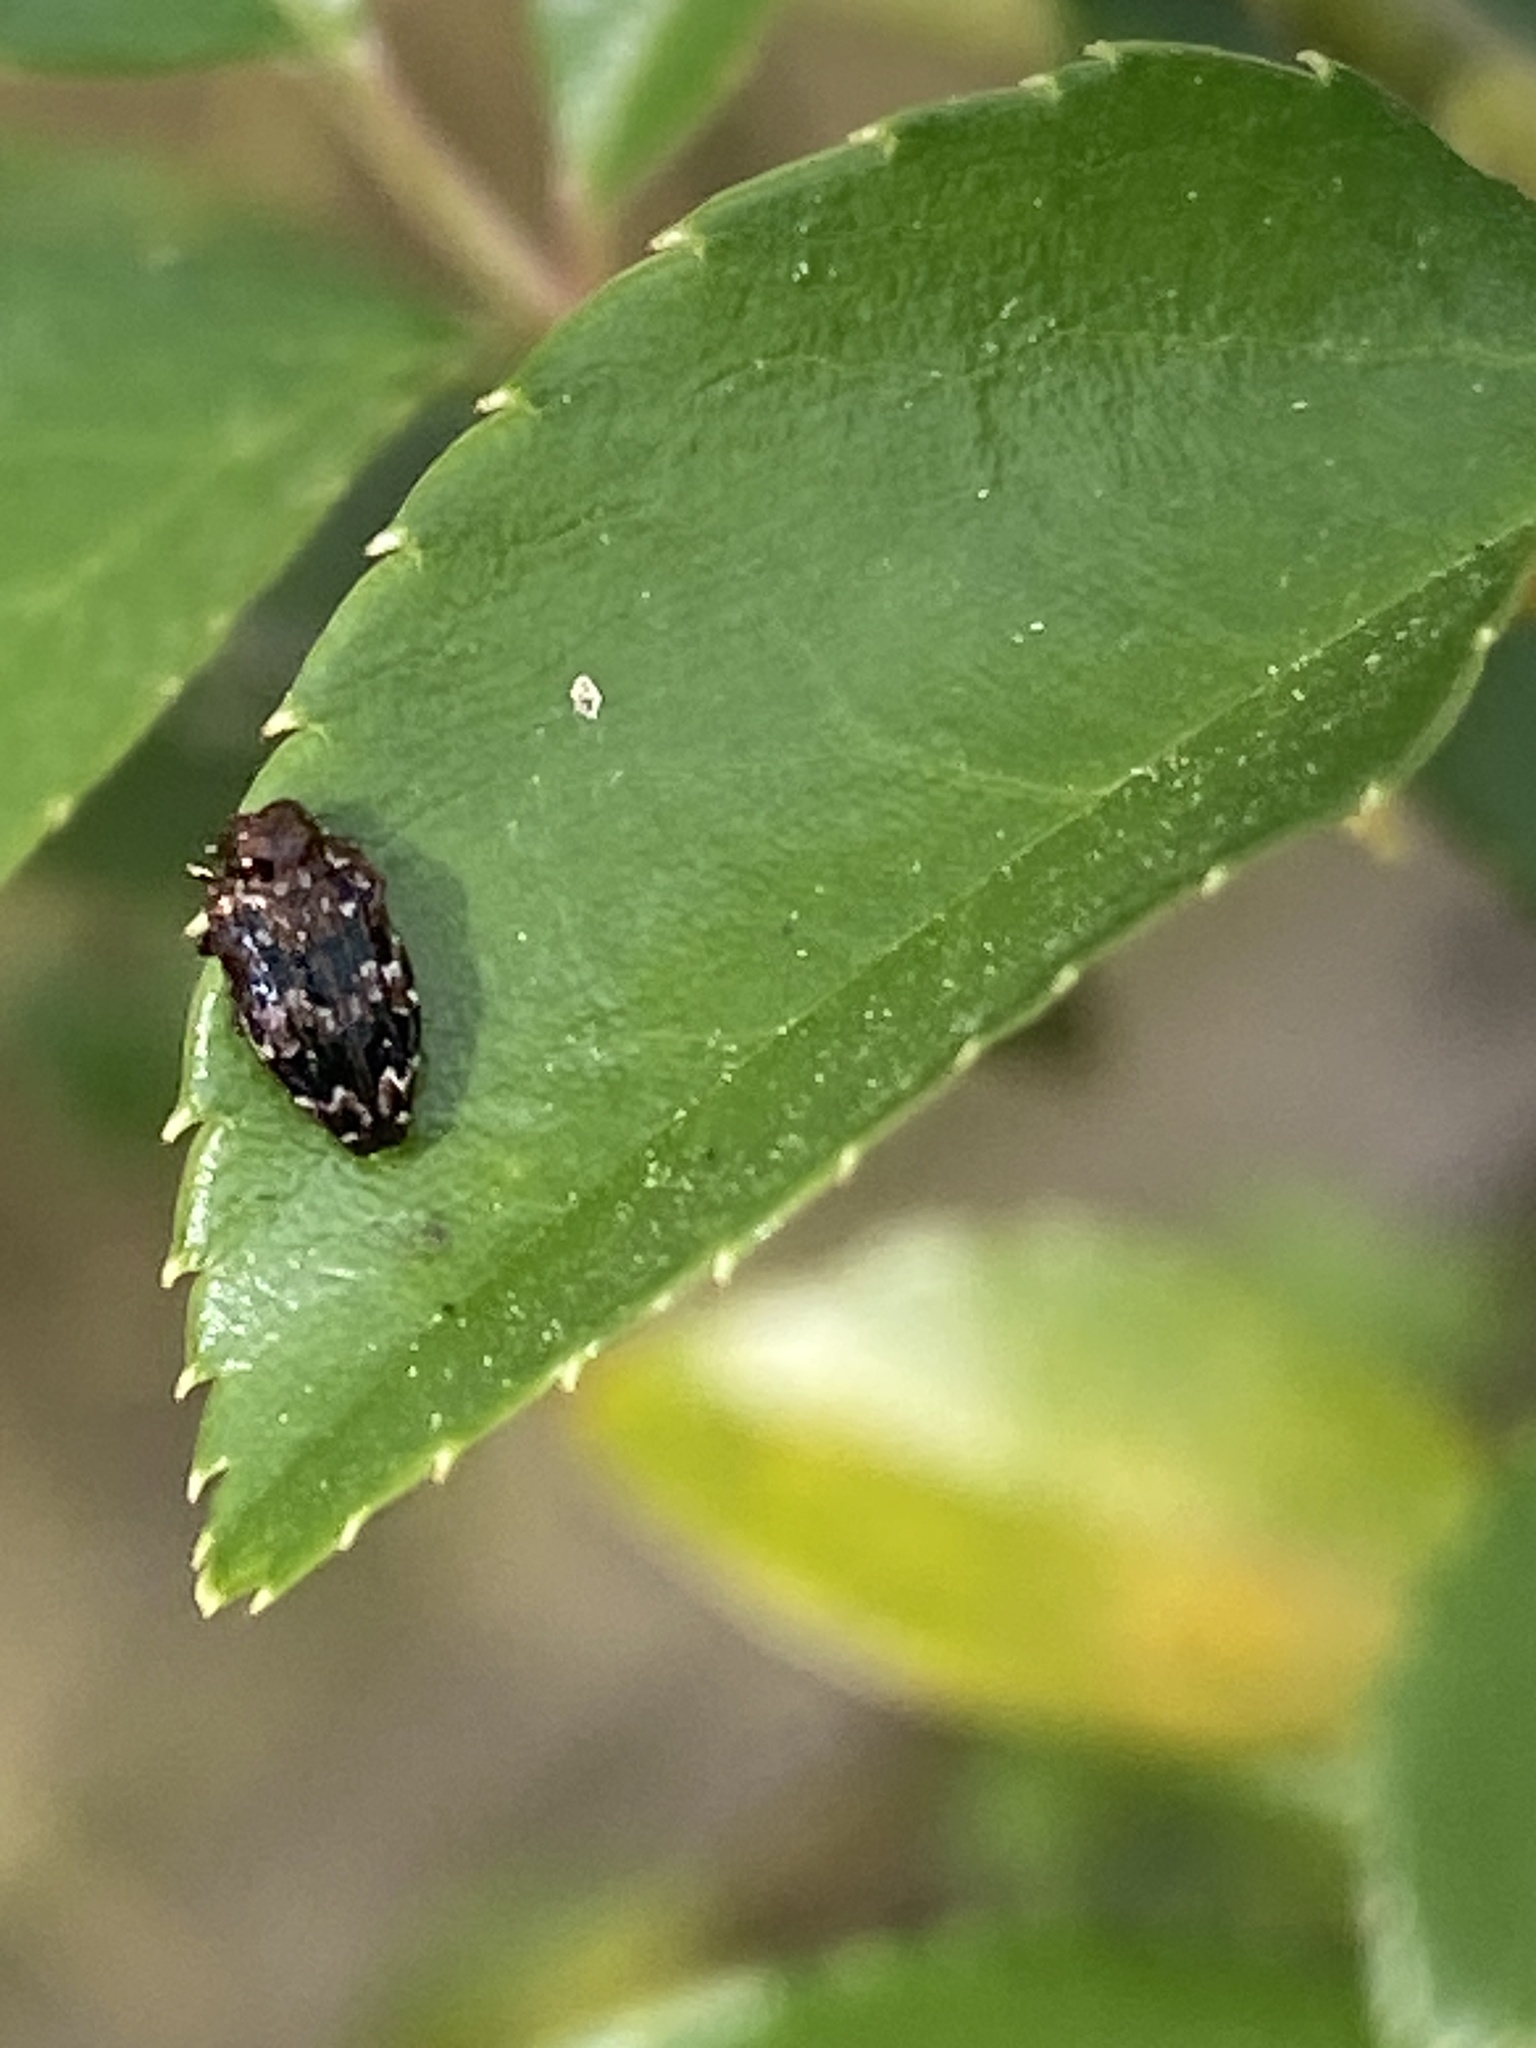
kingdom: Animalia
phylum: Arthropoda
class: Insecta
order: Coleoptera
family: Buprestidae
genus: Brachys
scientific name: Brachys ovatus
